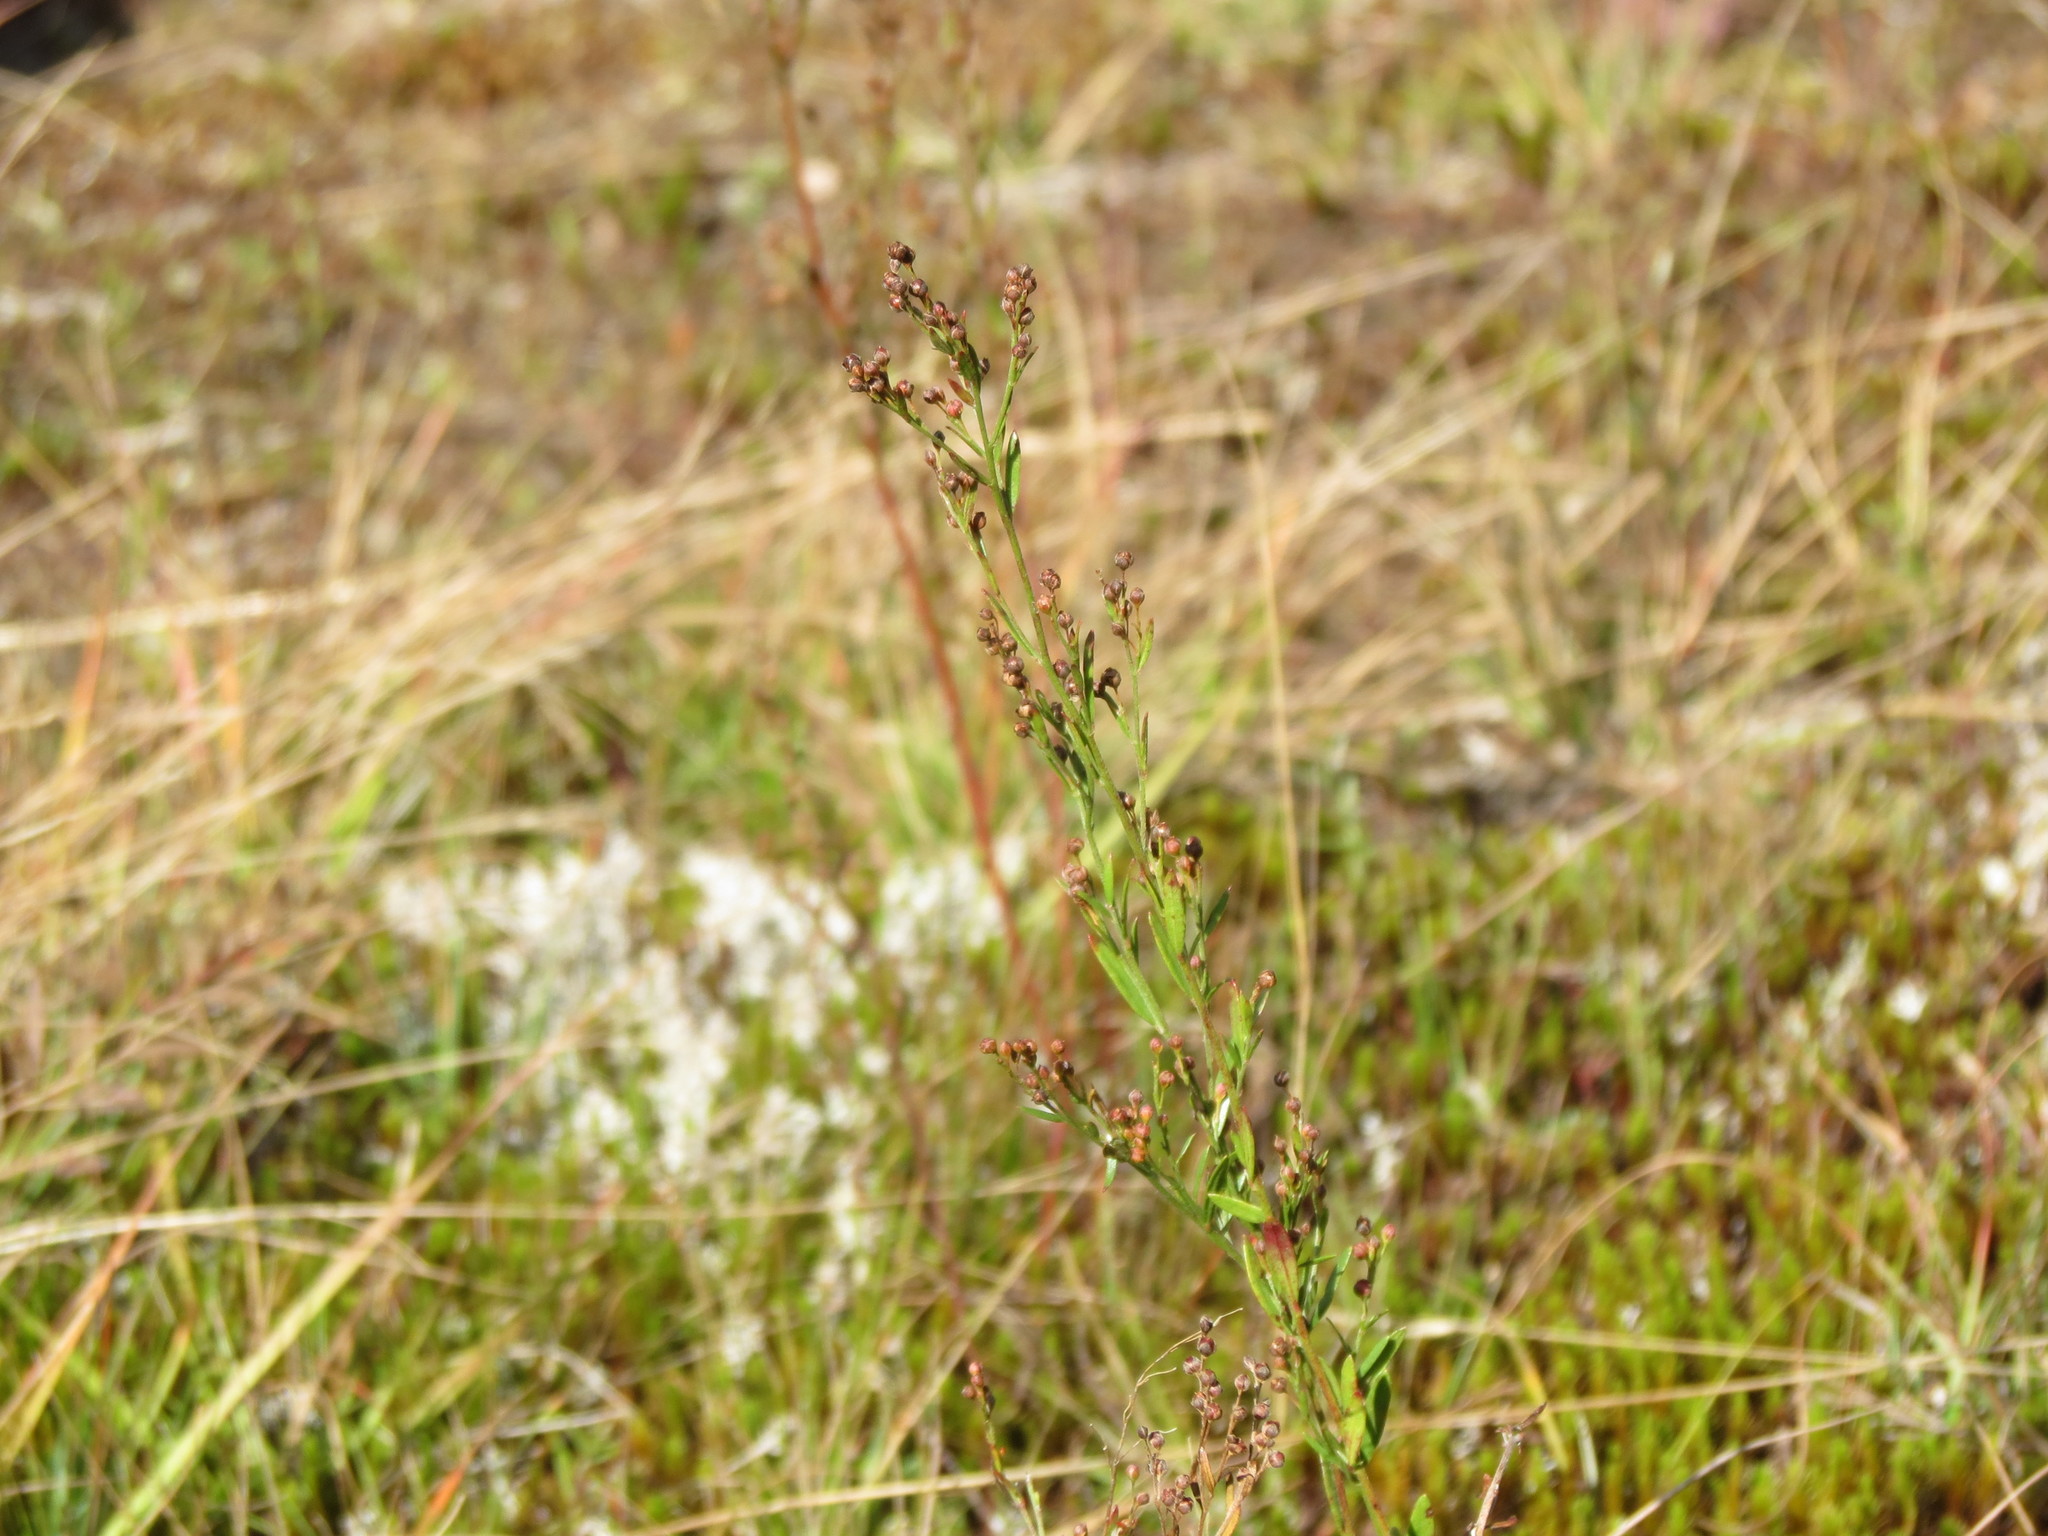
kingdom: Plantae
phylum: Tracheophyta
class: Magnoliopsida
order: Malvales
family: Cistaceae
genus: Lechea
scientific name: Lechea intermedia
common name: Intermediate pinweed
